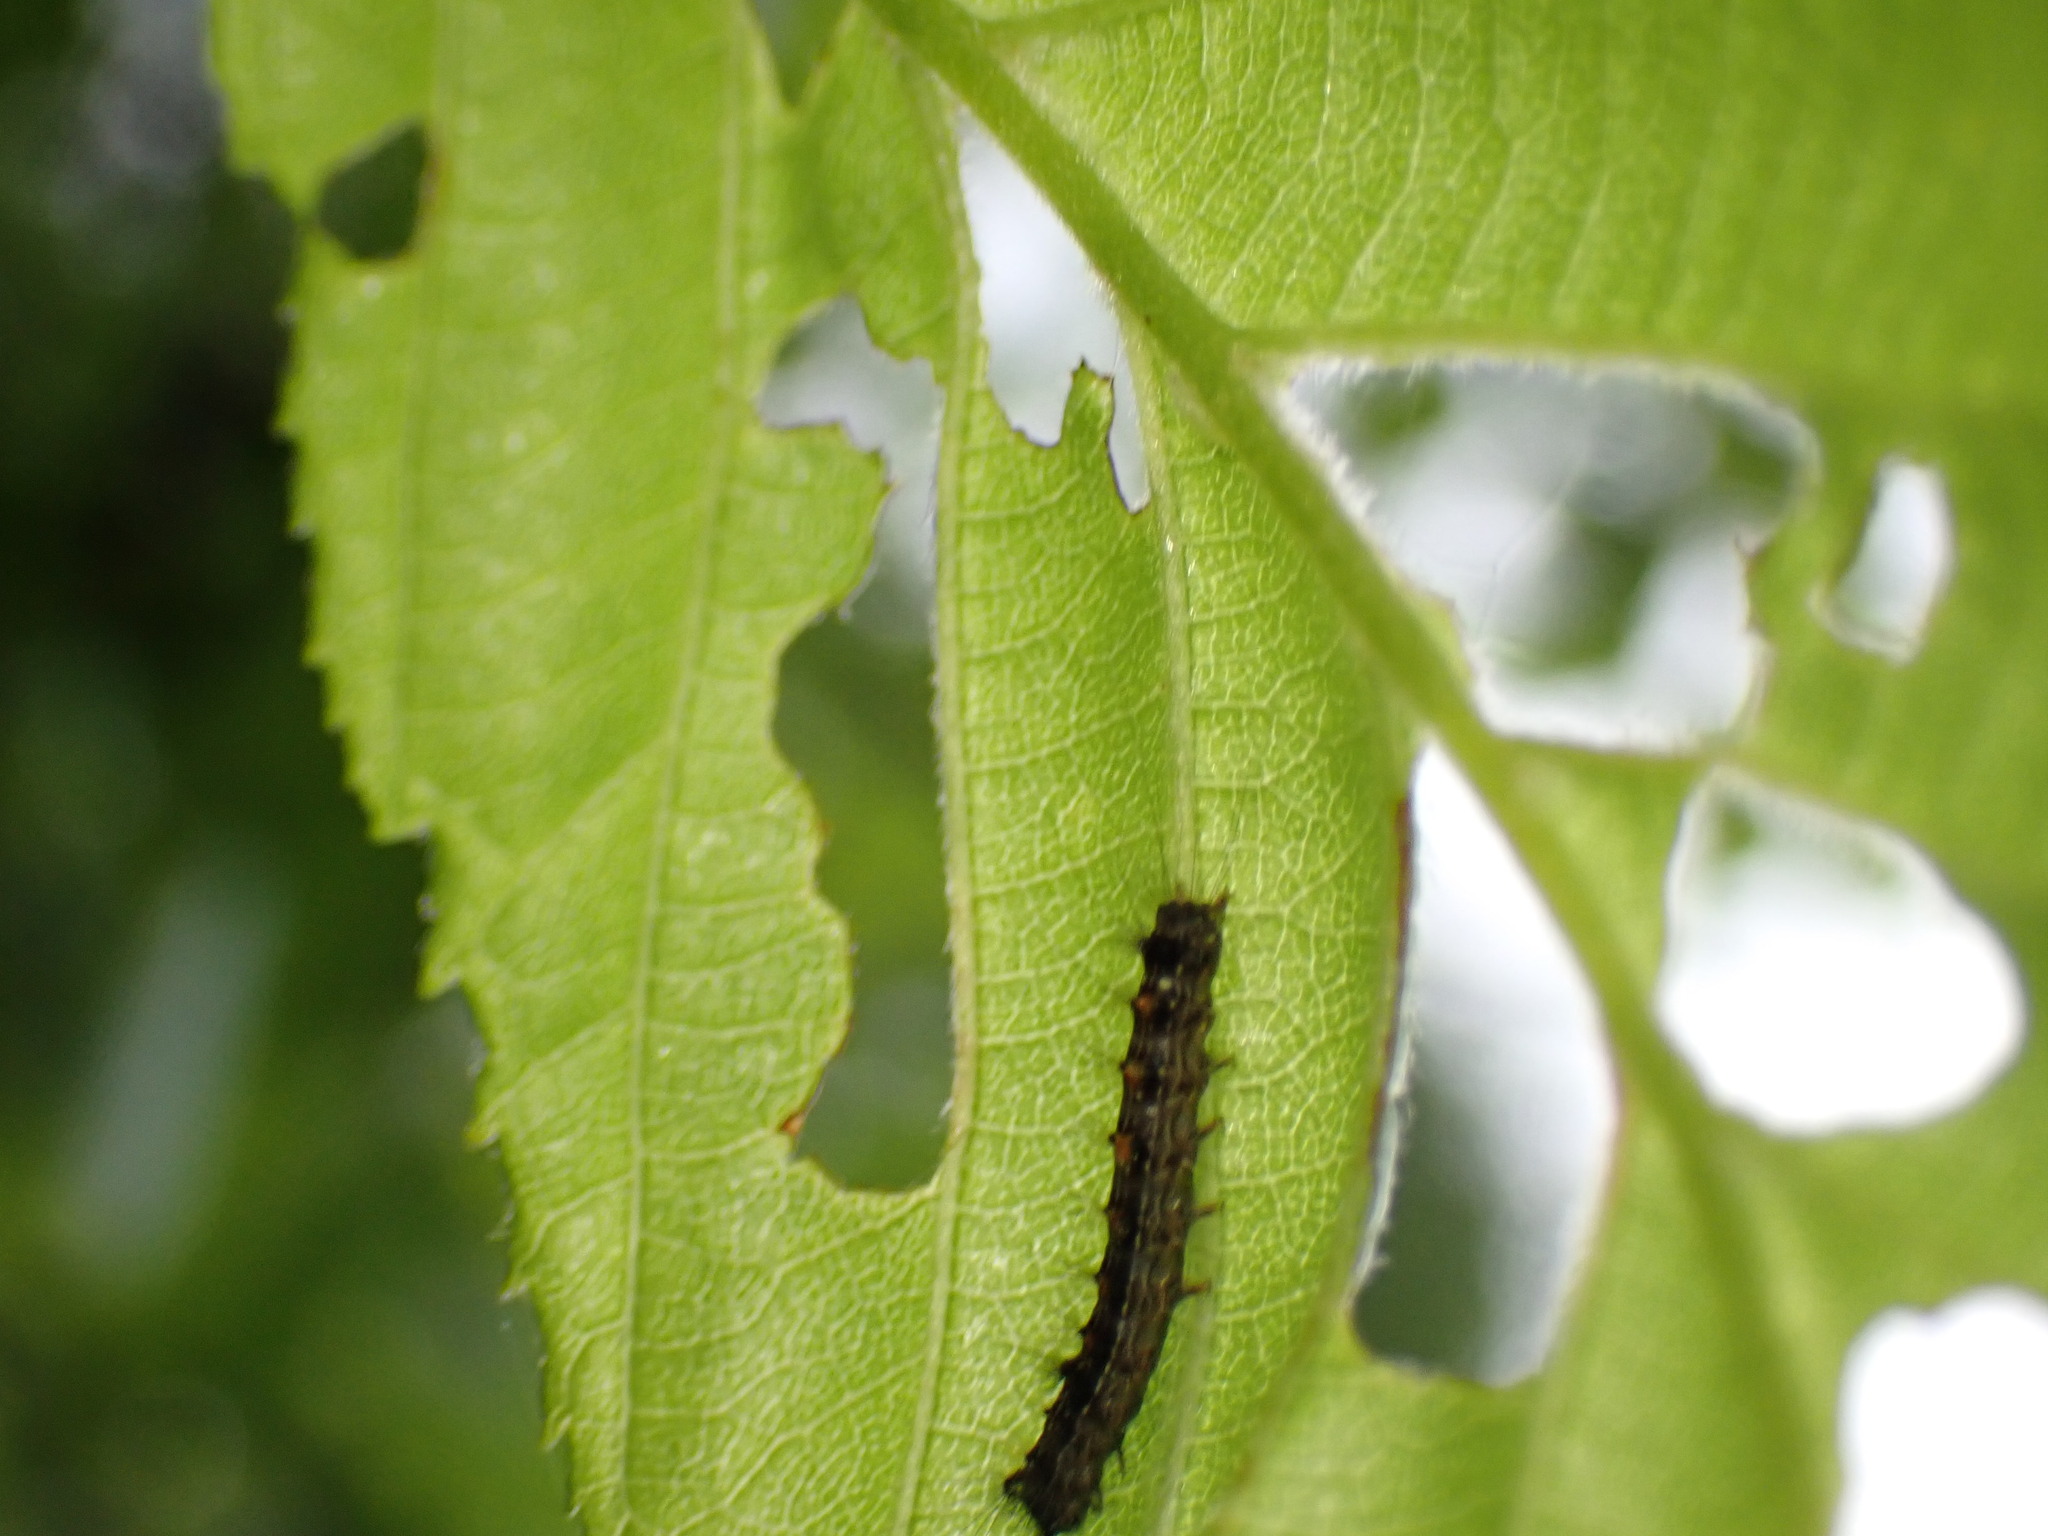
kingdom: Animalia
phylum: Arthropoda
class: Insecta
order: Lepidoptera
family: Erebidae
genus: Lymantria
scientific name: Lymantria dispar
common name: Gypsy moth
